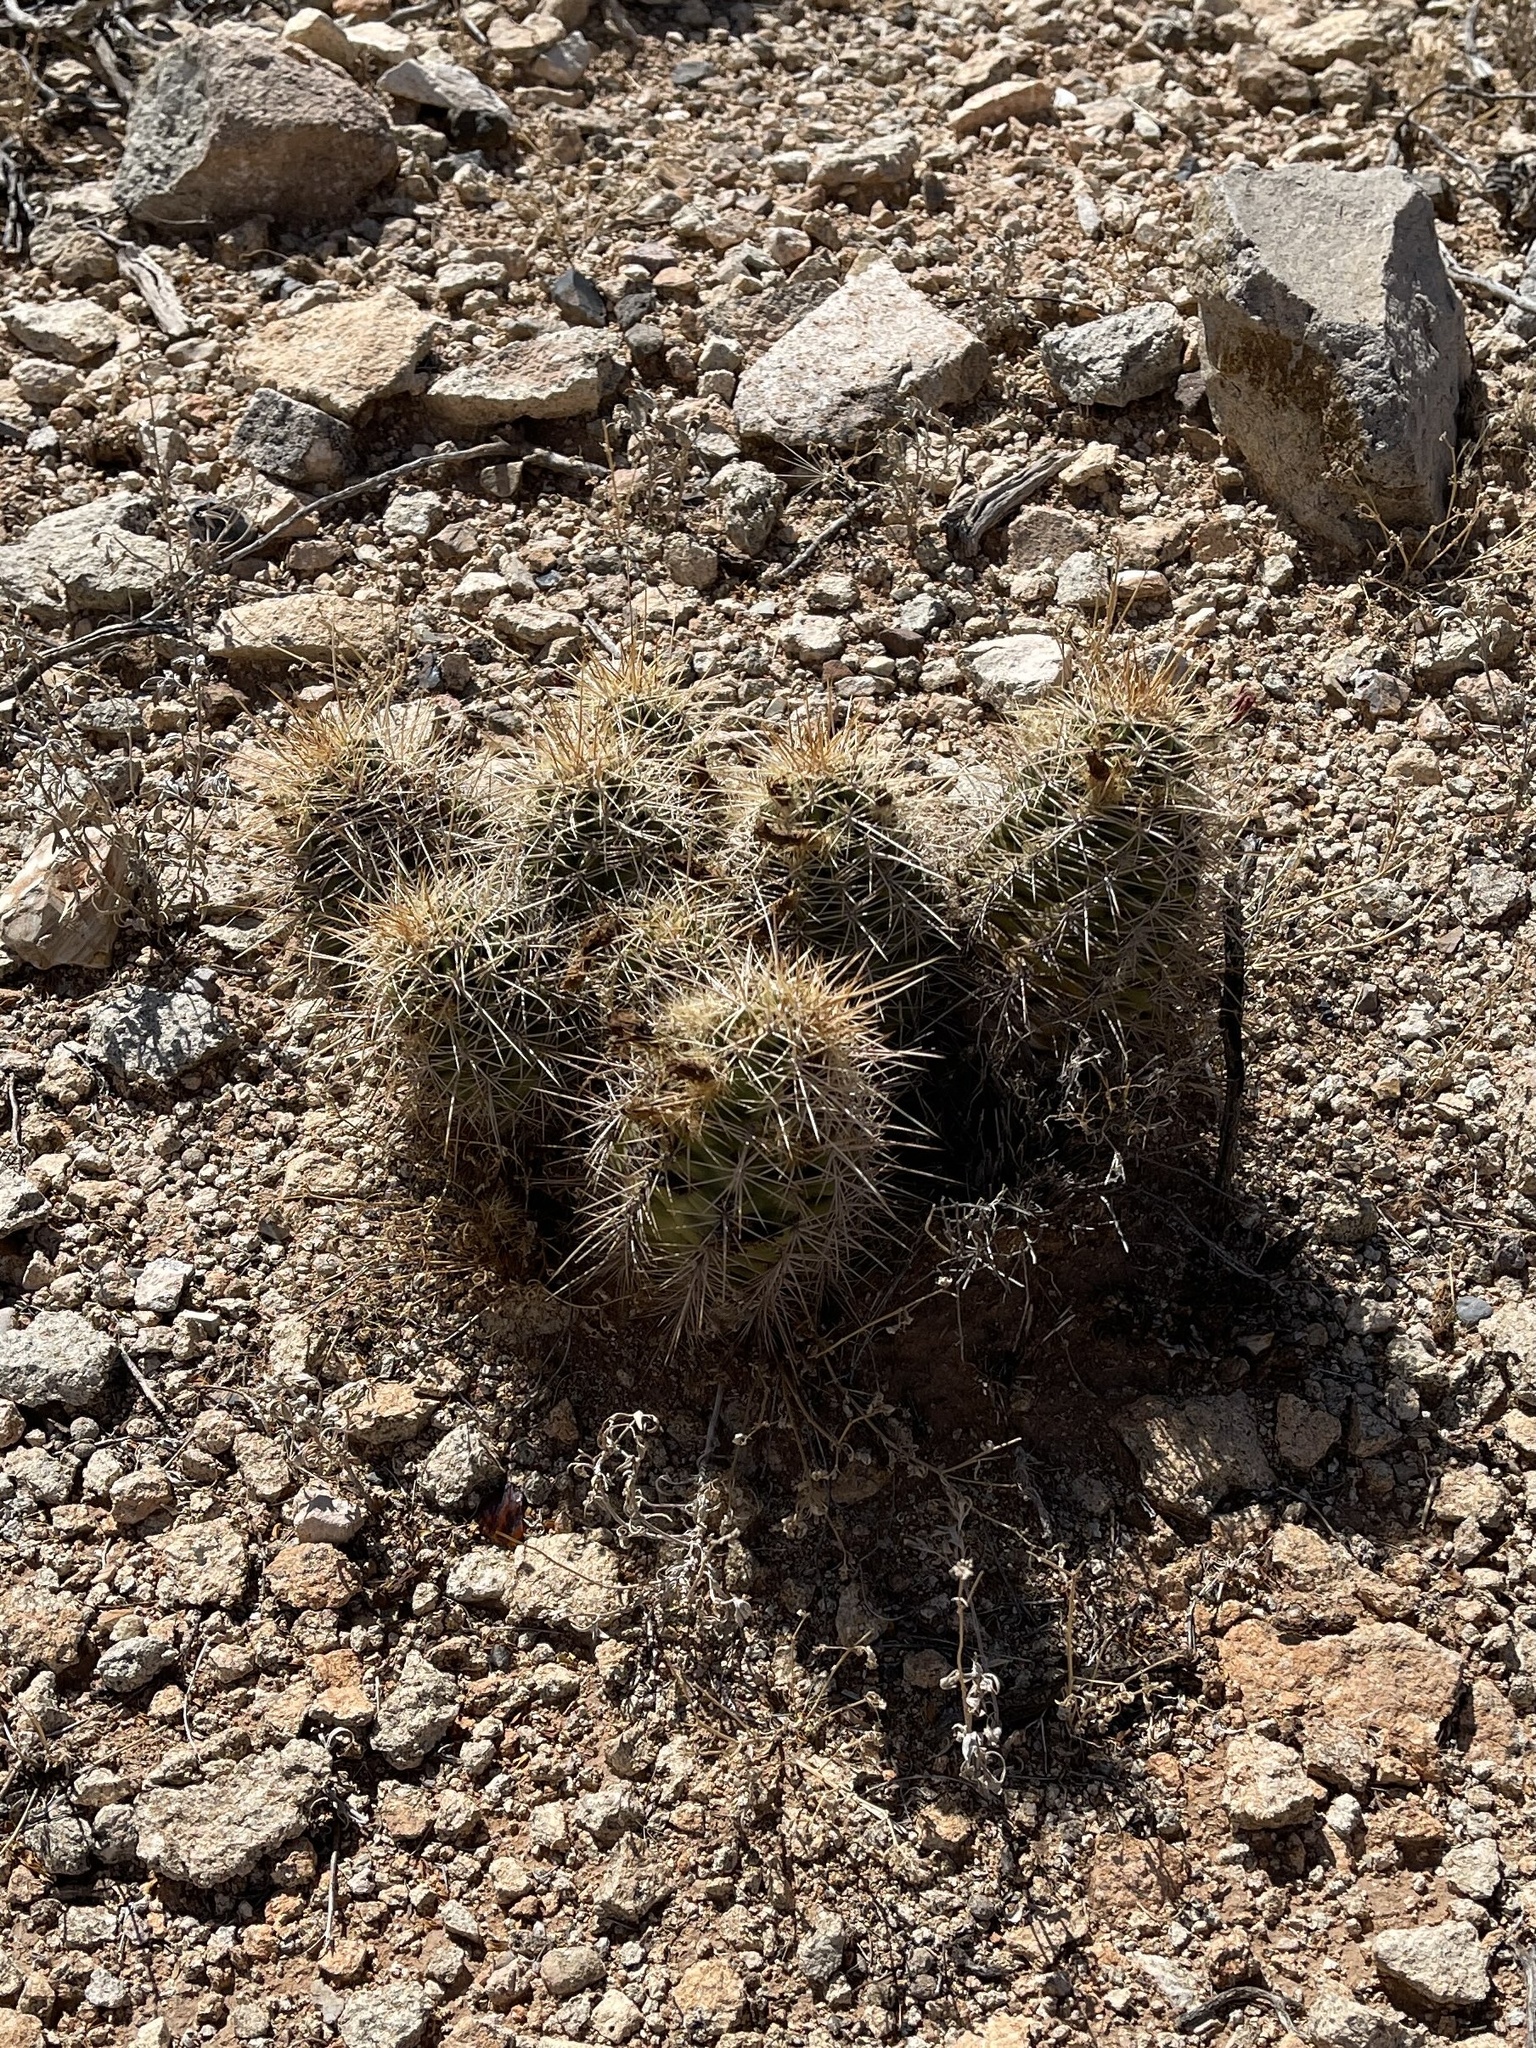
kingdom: Plantae
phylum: Tracheophyta
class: Magnoliopsida
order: Caryophyllales
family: Cactaceae
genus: Echinocereus
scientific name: Echinocereus coccineus
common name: Scarlet hedgehog cactus
